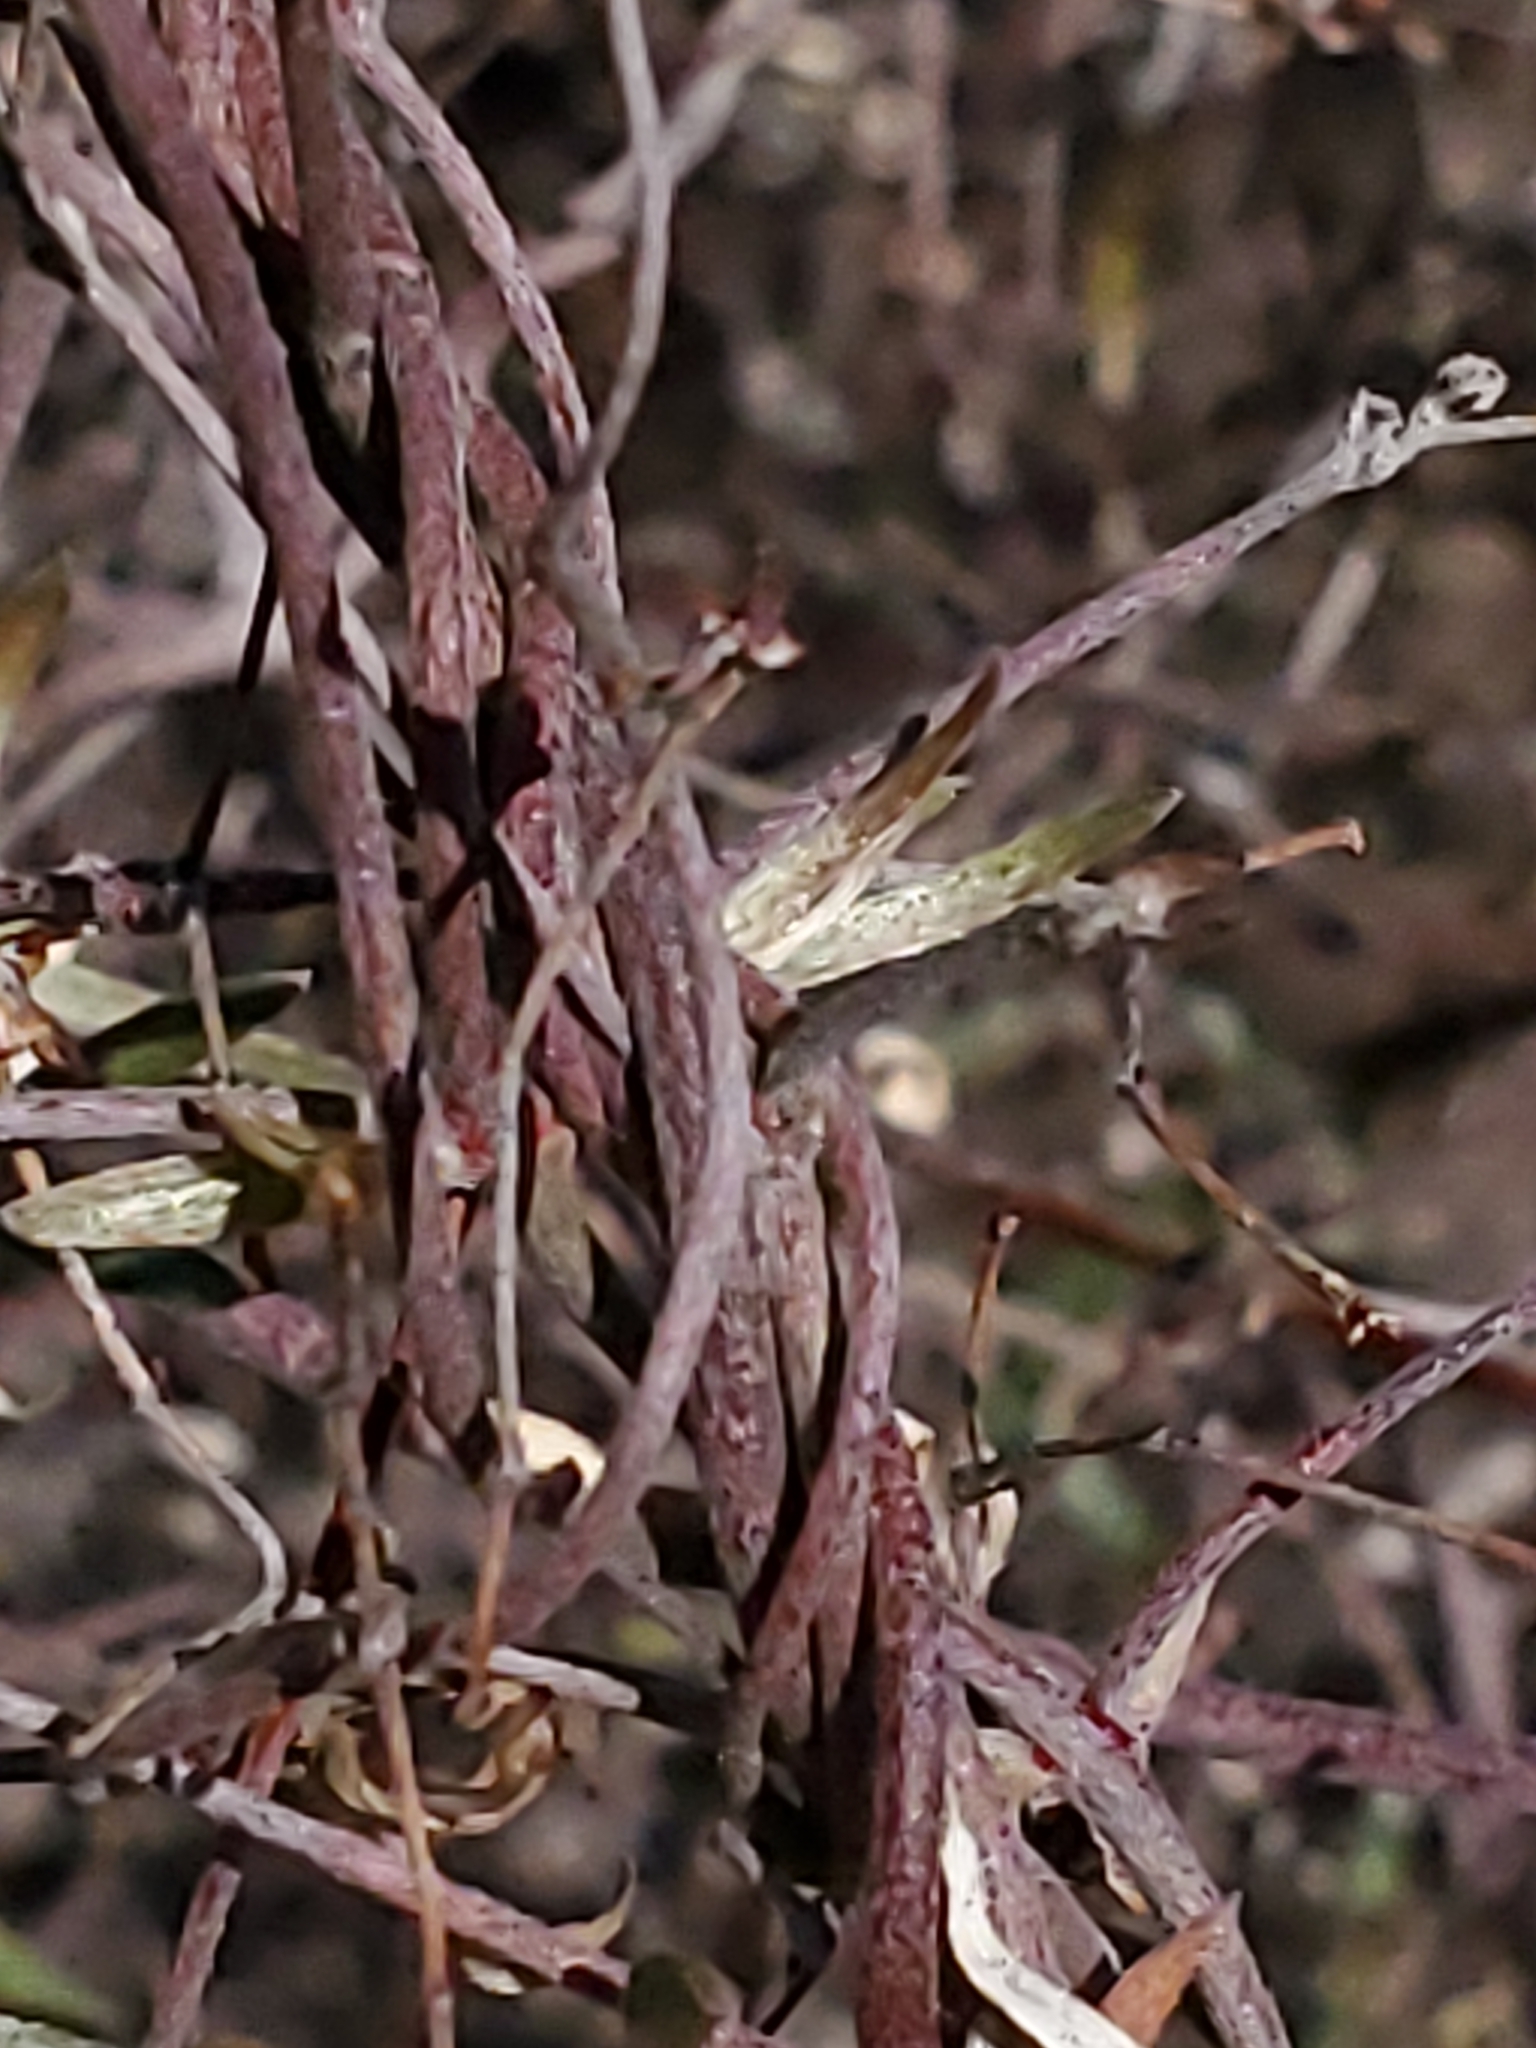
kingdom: Plantae
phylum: Tracheophyta
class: Magnoliopsida
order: Malpighiales
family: Malpighiaceae
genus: Cottsia
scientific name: Cottsia gracilis
